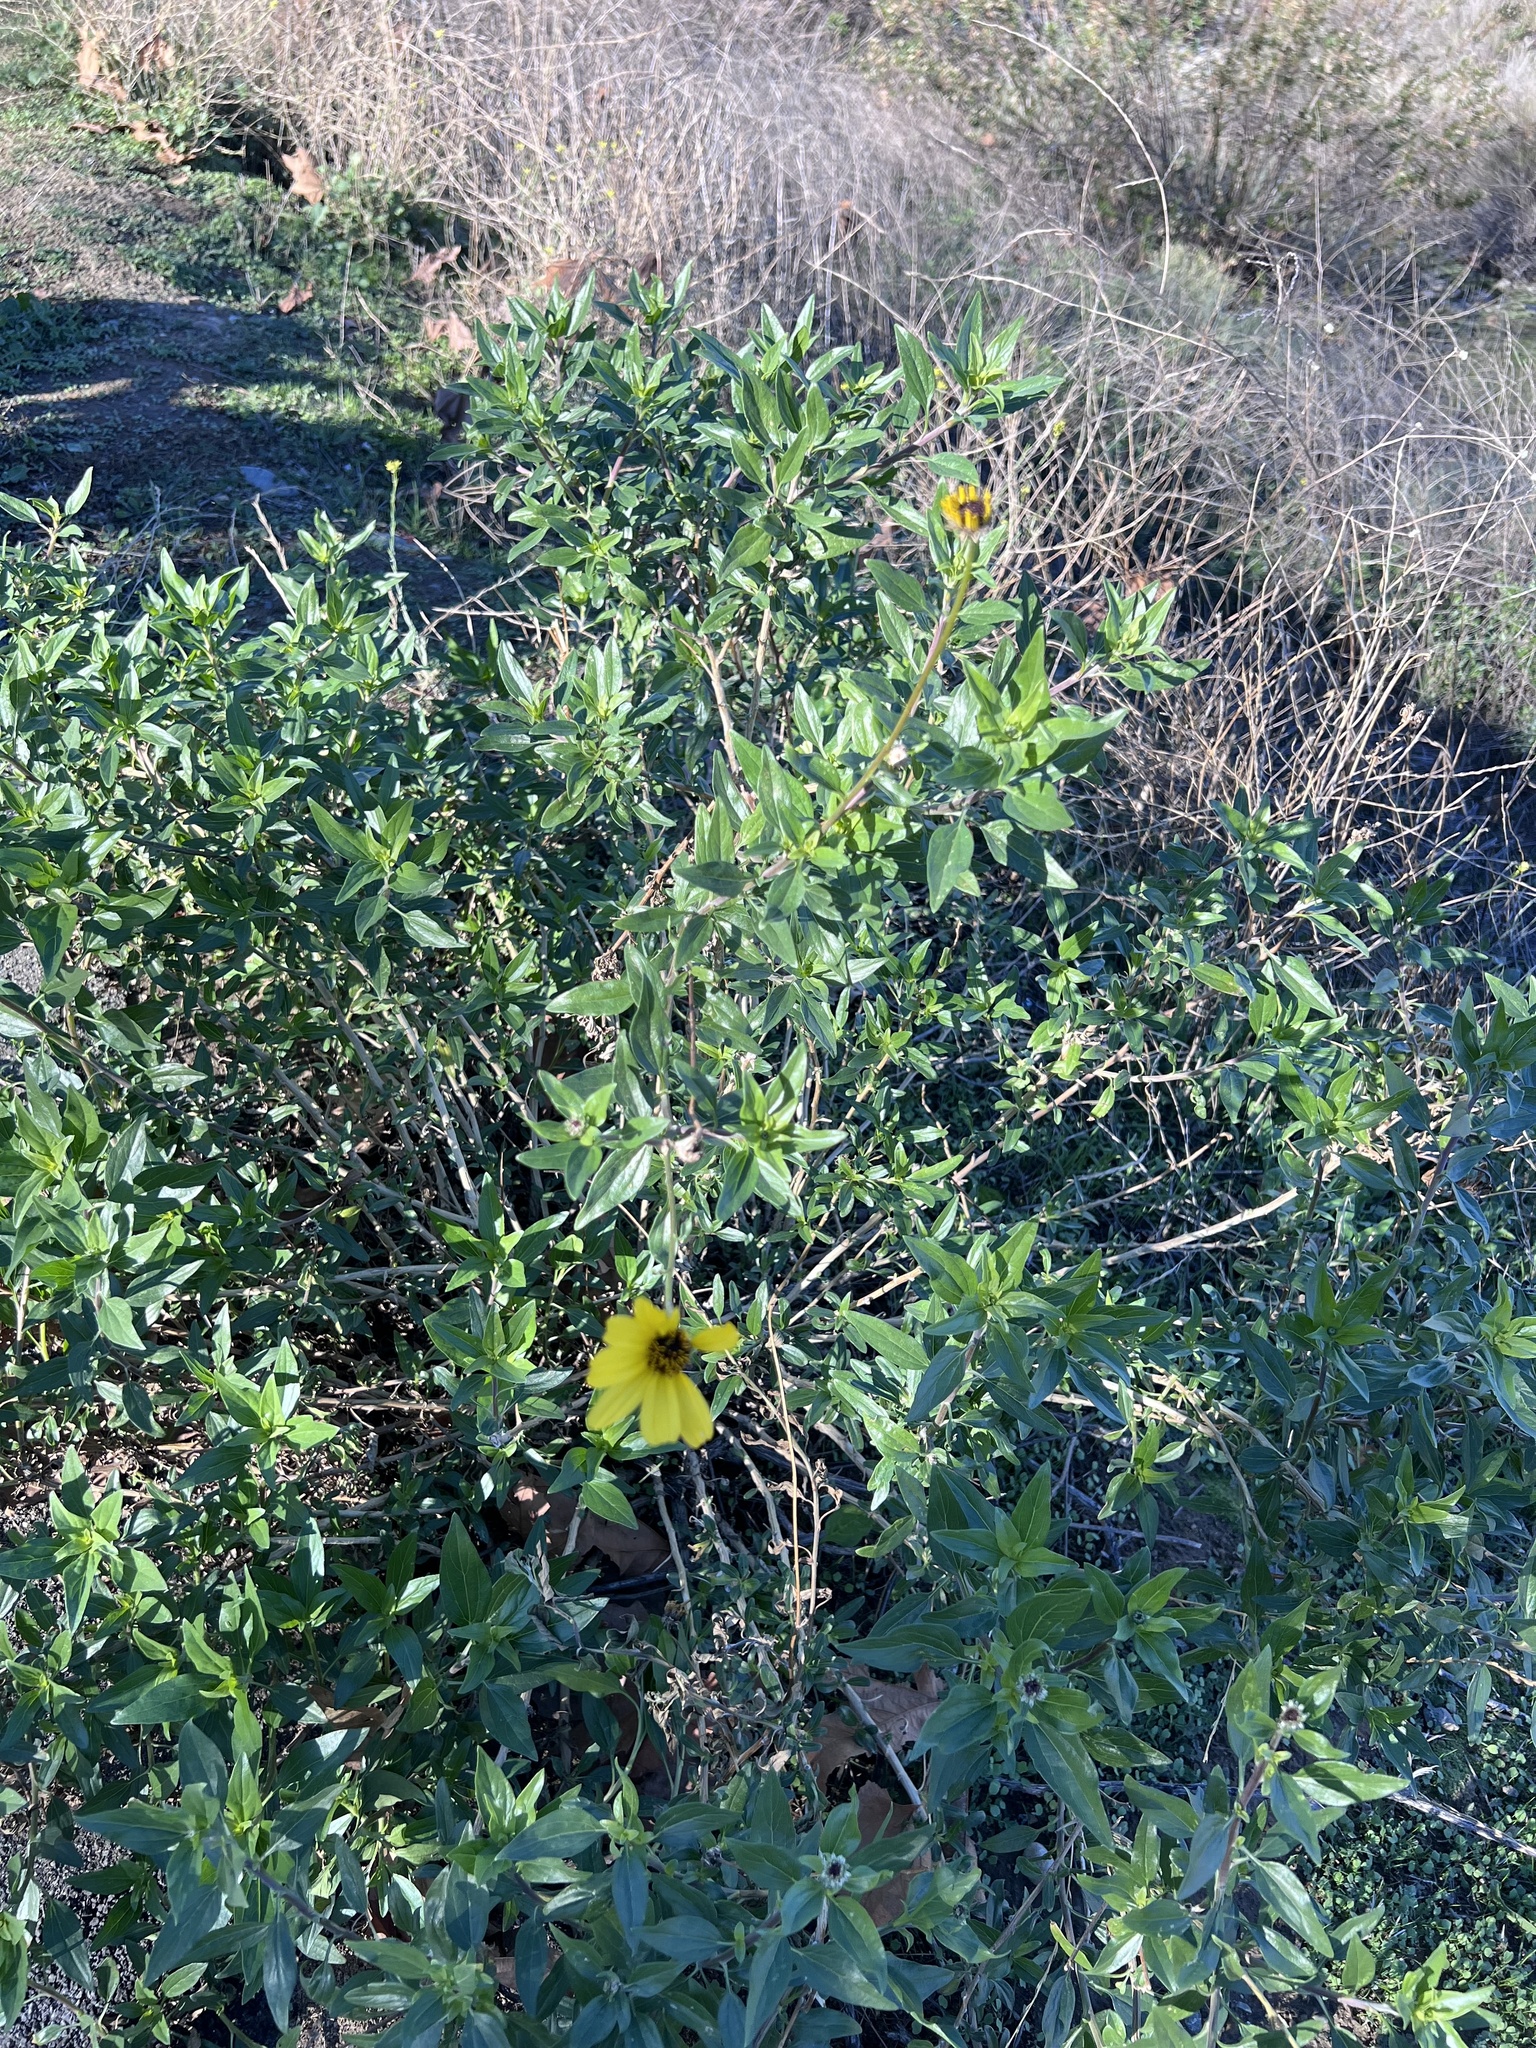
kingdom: Plantae
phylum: Tracheophyta
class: Magnoliopsida
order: Asterales
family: Asteraceae
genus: Encelia
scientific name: Encelia californica
